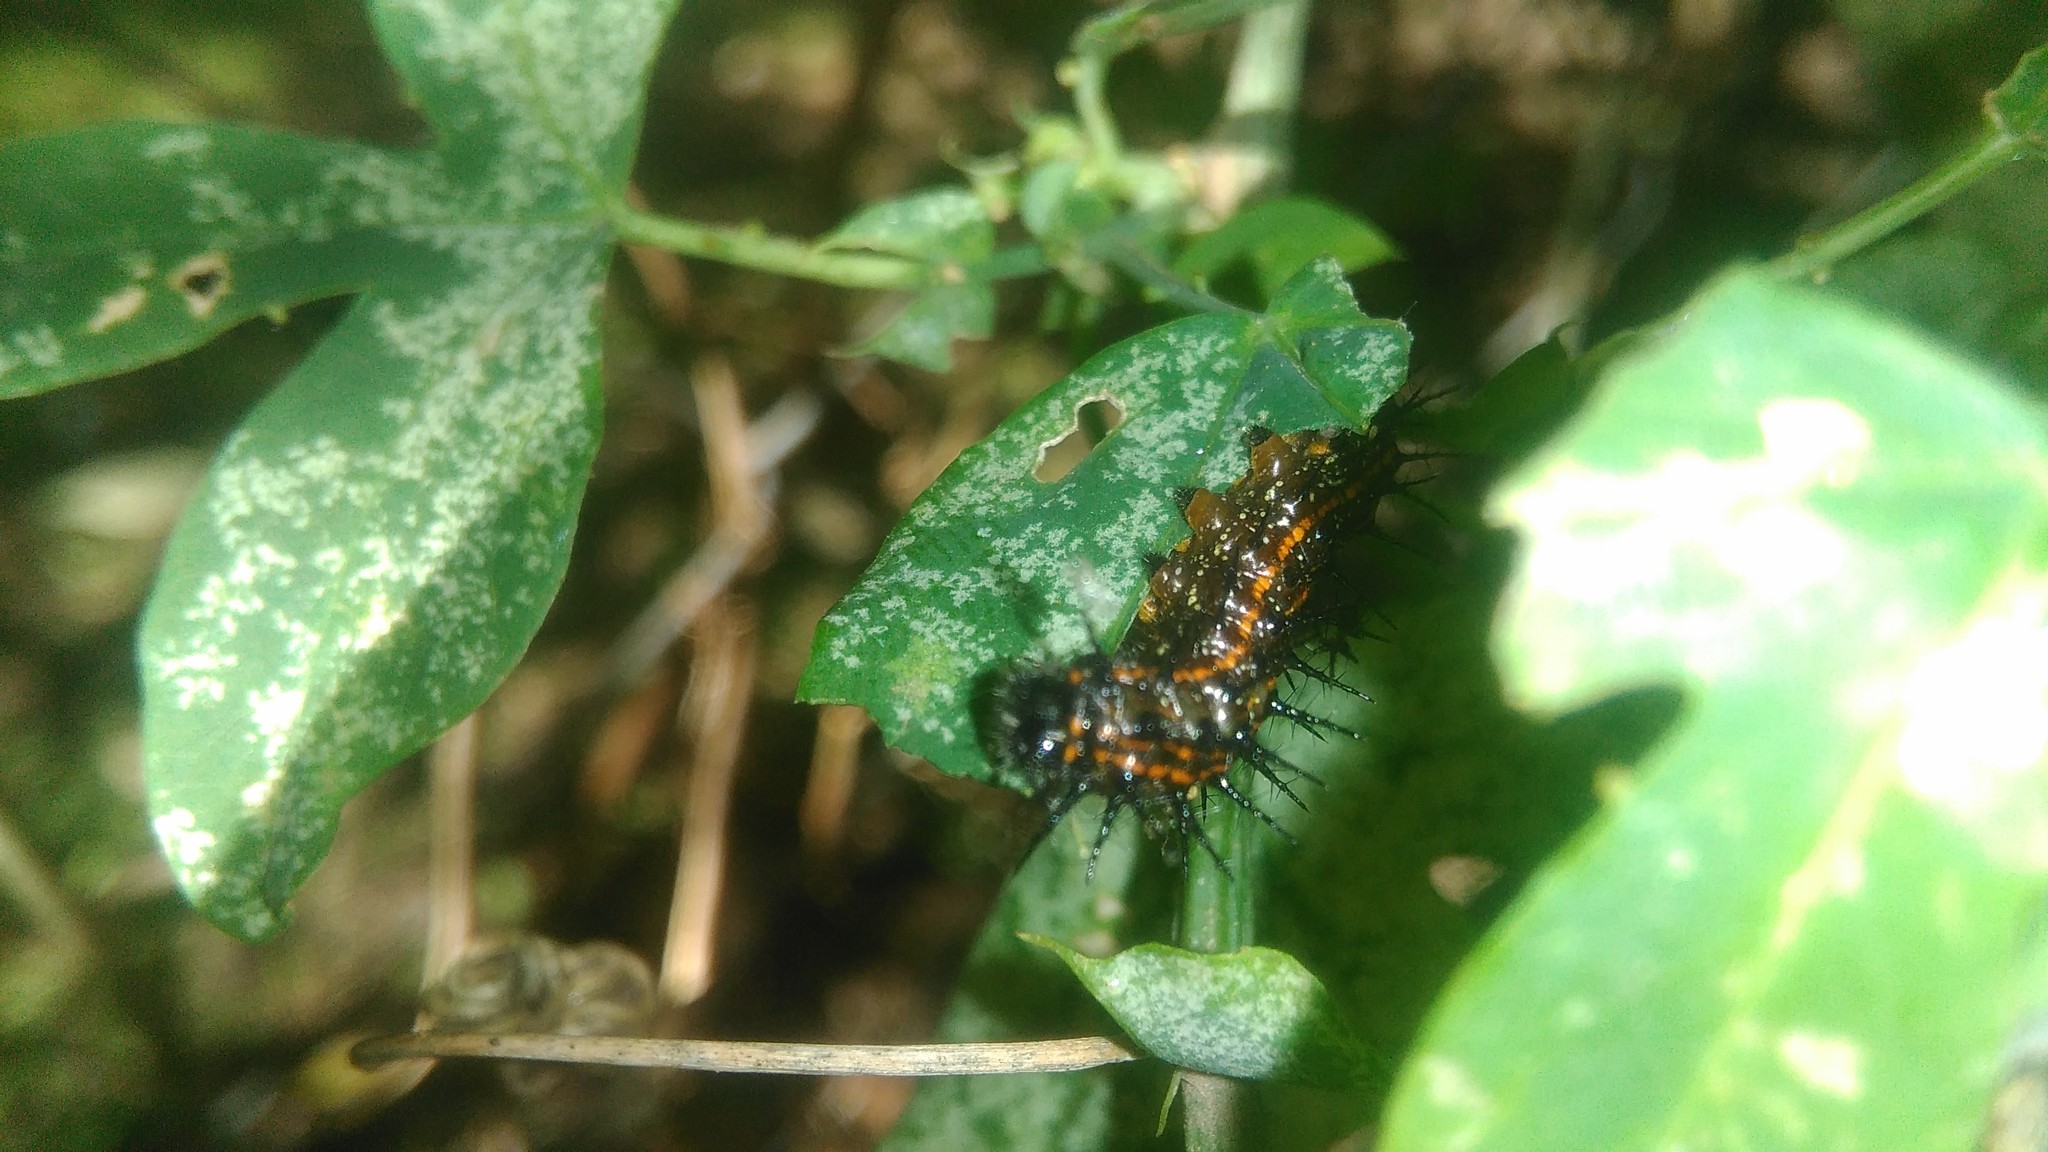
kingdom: Plantae
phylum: Tracheophyta
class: Magnoliopsida
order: Malpighiales
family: Passifloraceae
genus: Passiflora
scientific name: Passiflora caerulea
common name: Blue passionflower
